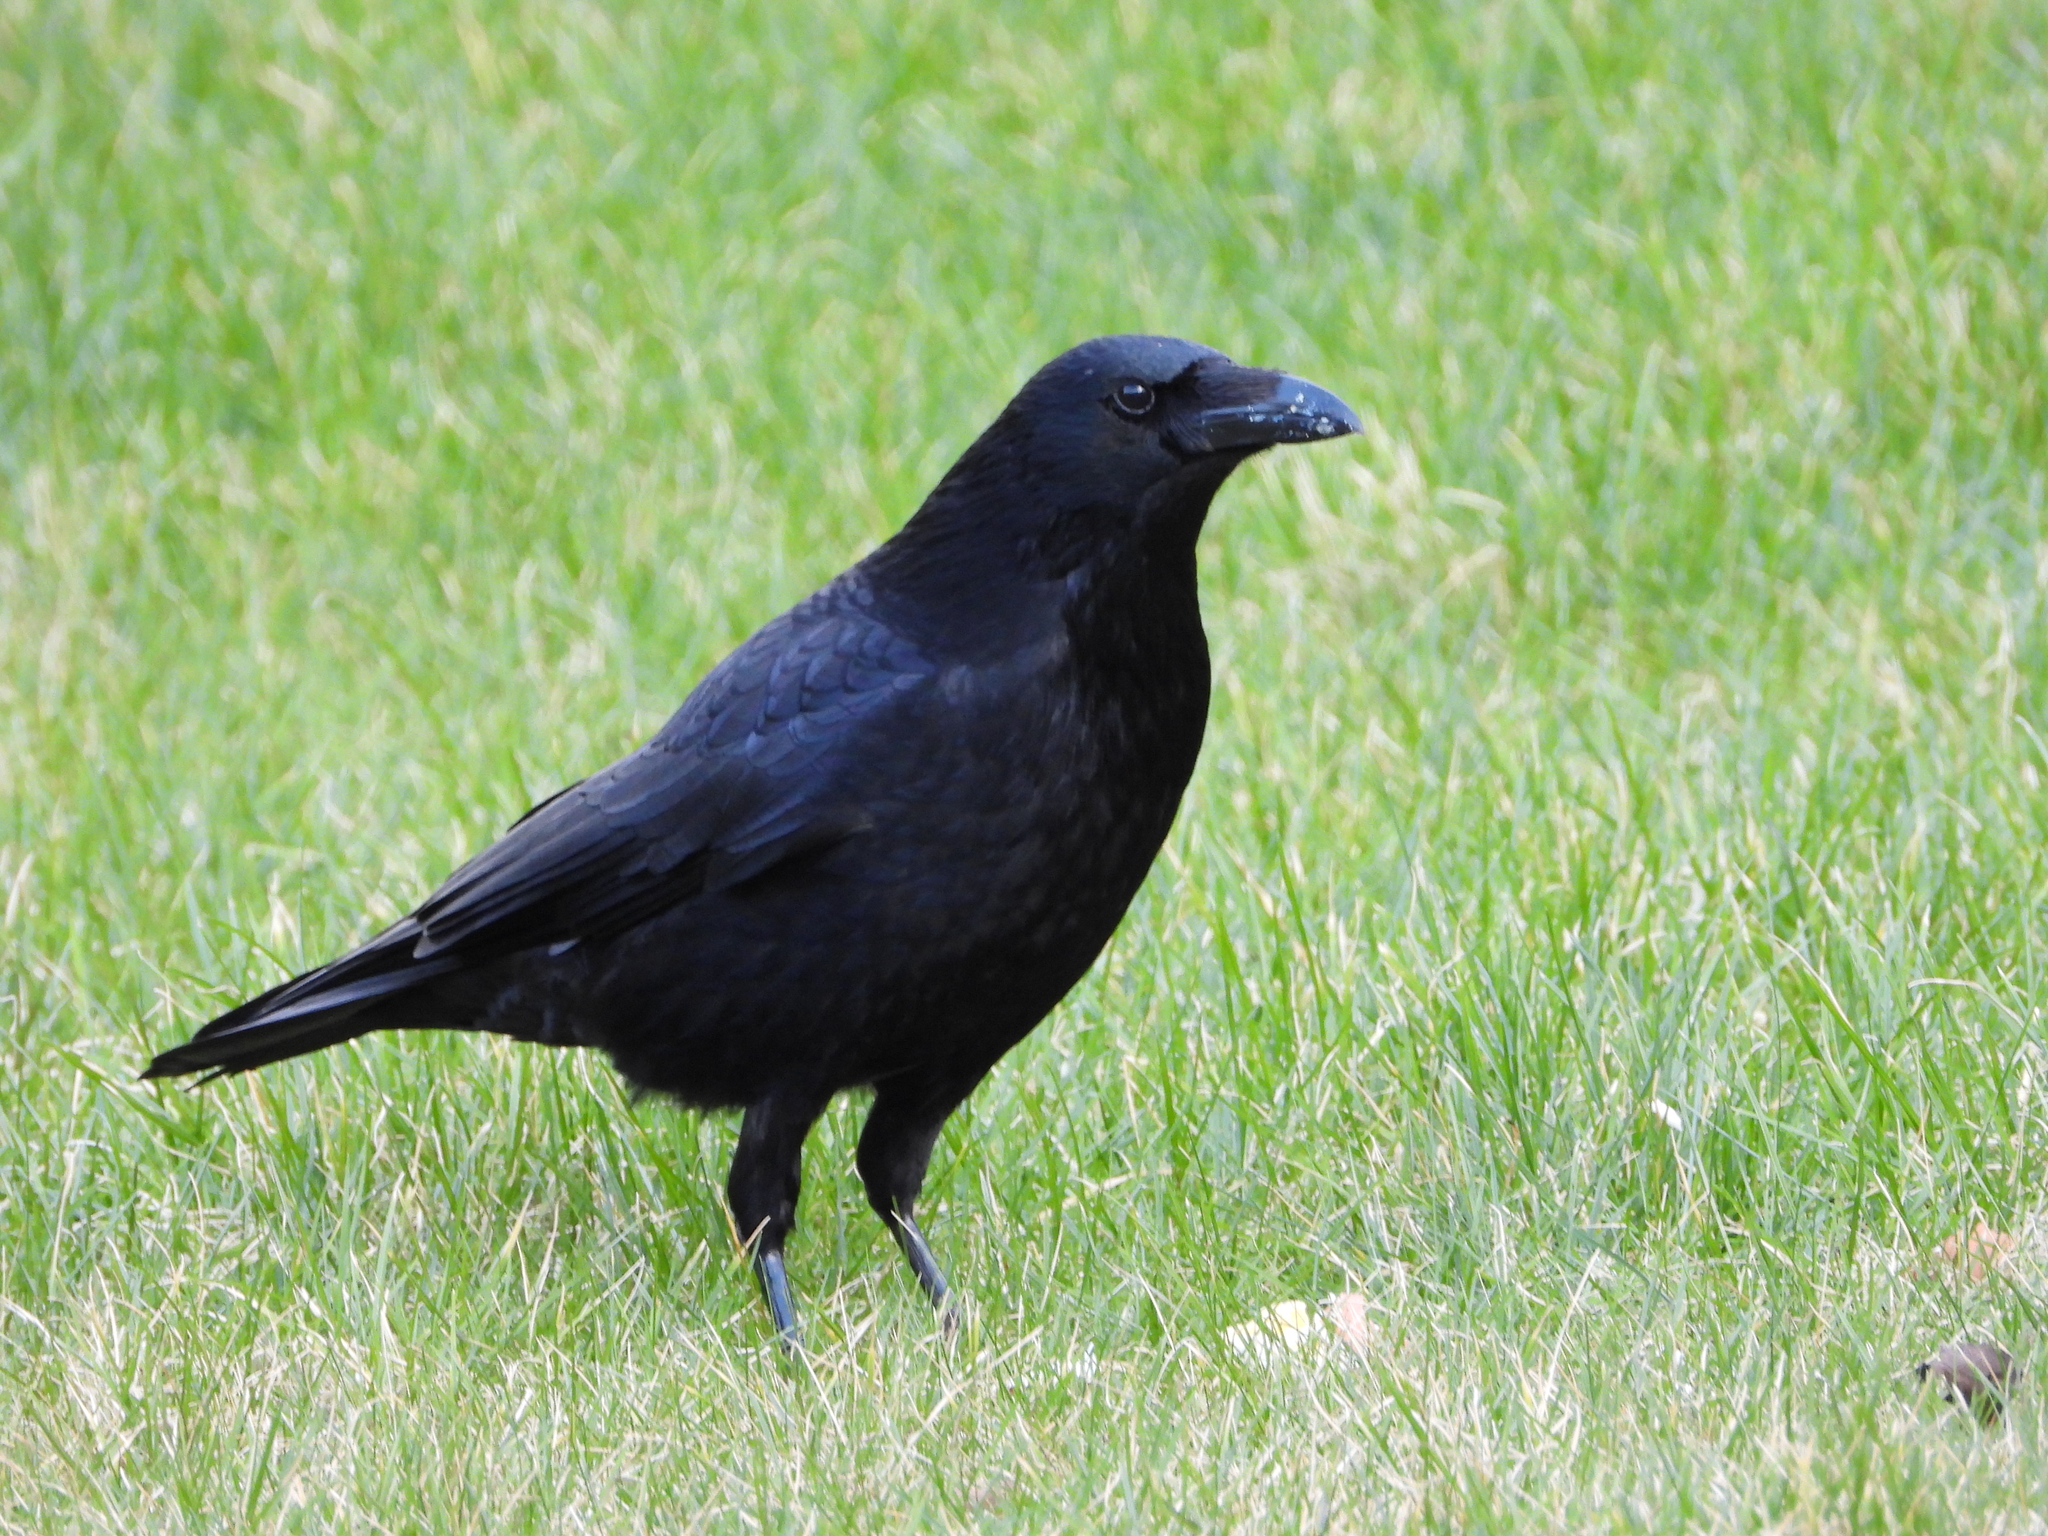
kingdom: Animalia
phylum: Chordata
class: Aves
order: Passeriformes
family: Corvidae
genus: Corvus
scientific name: Corvus corone
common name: Carrion crow
